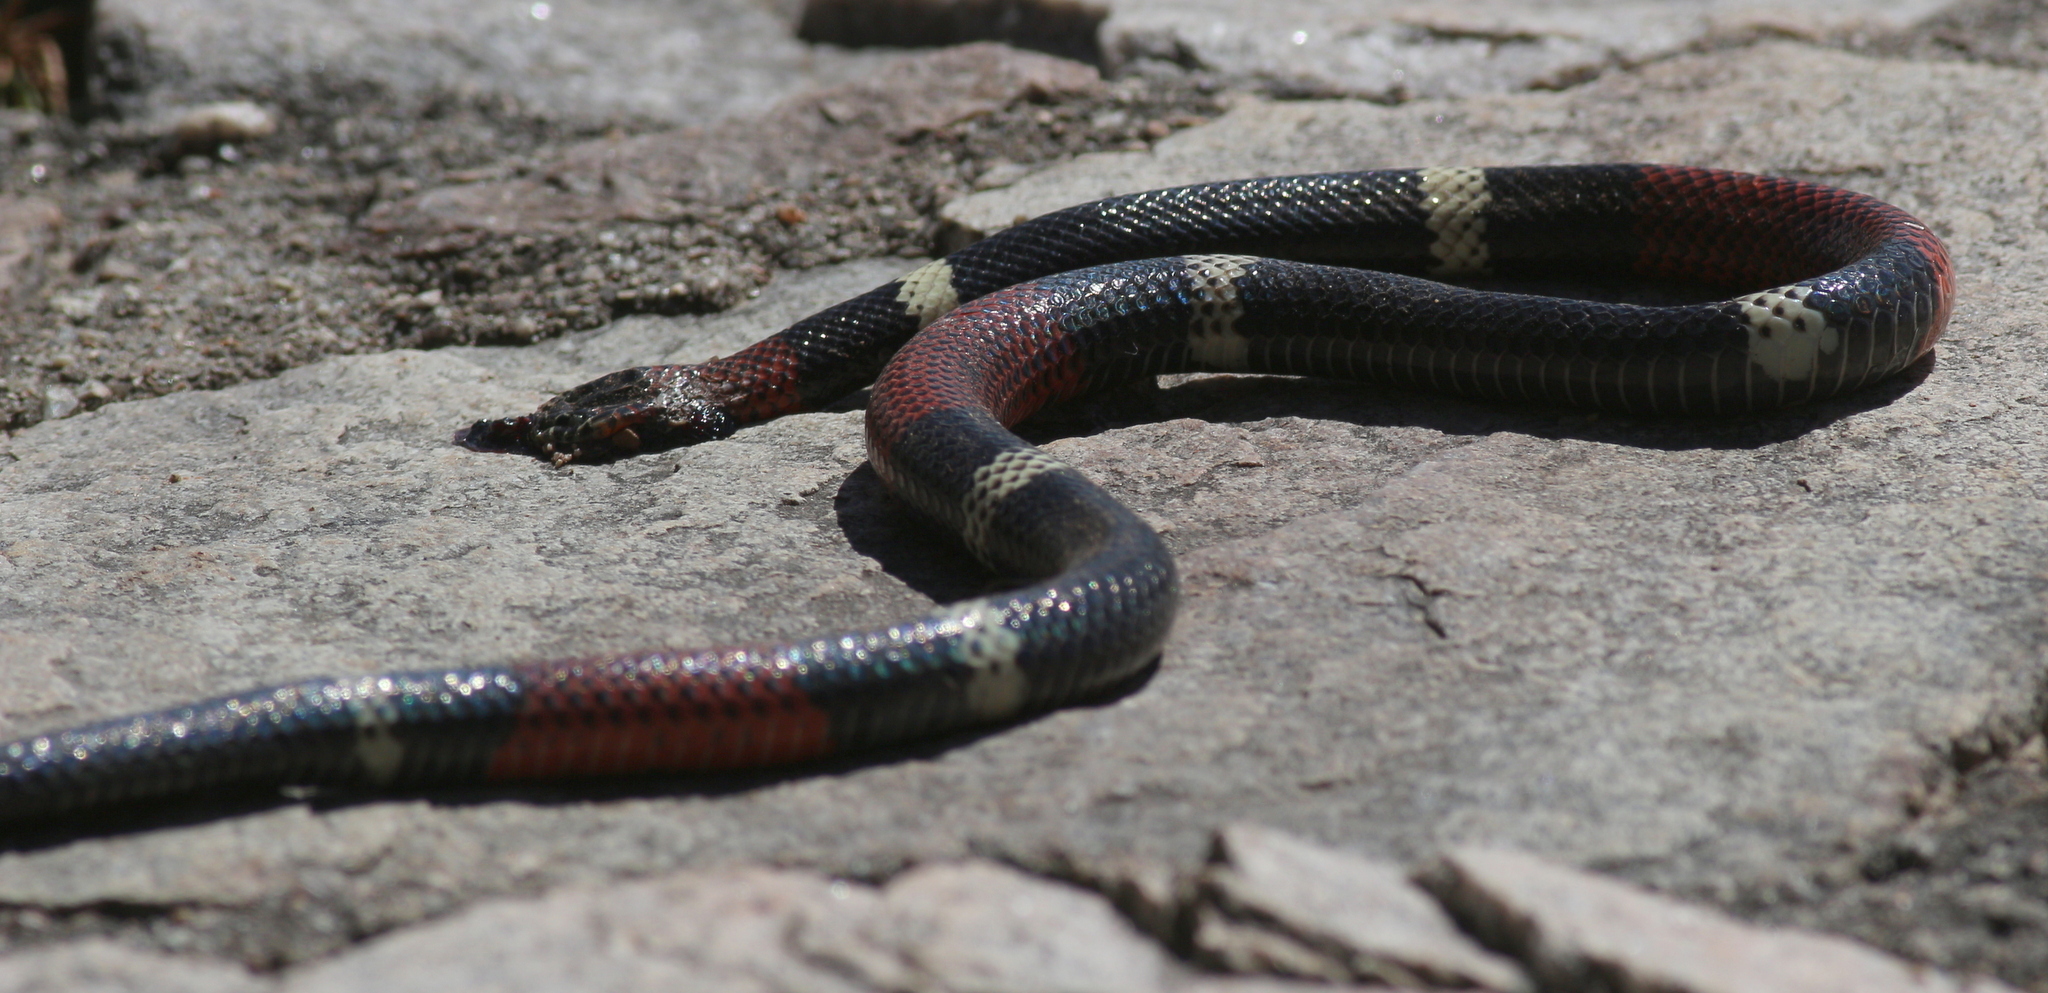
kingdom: Animalia
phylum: Chordata
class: Squamata
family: Elapidae
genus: Micrurus
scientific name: Micrurus pyrrhocryptus
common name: Argentinian coral snake
